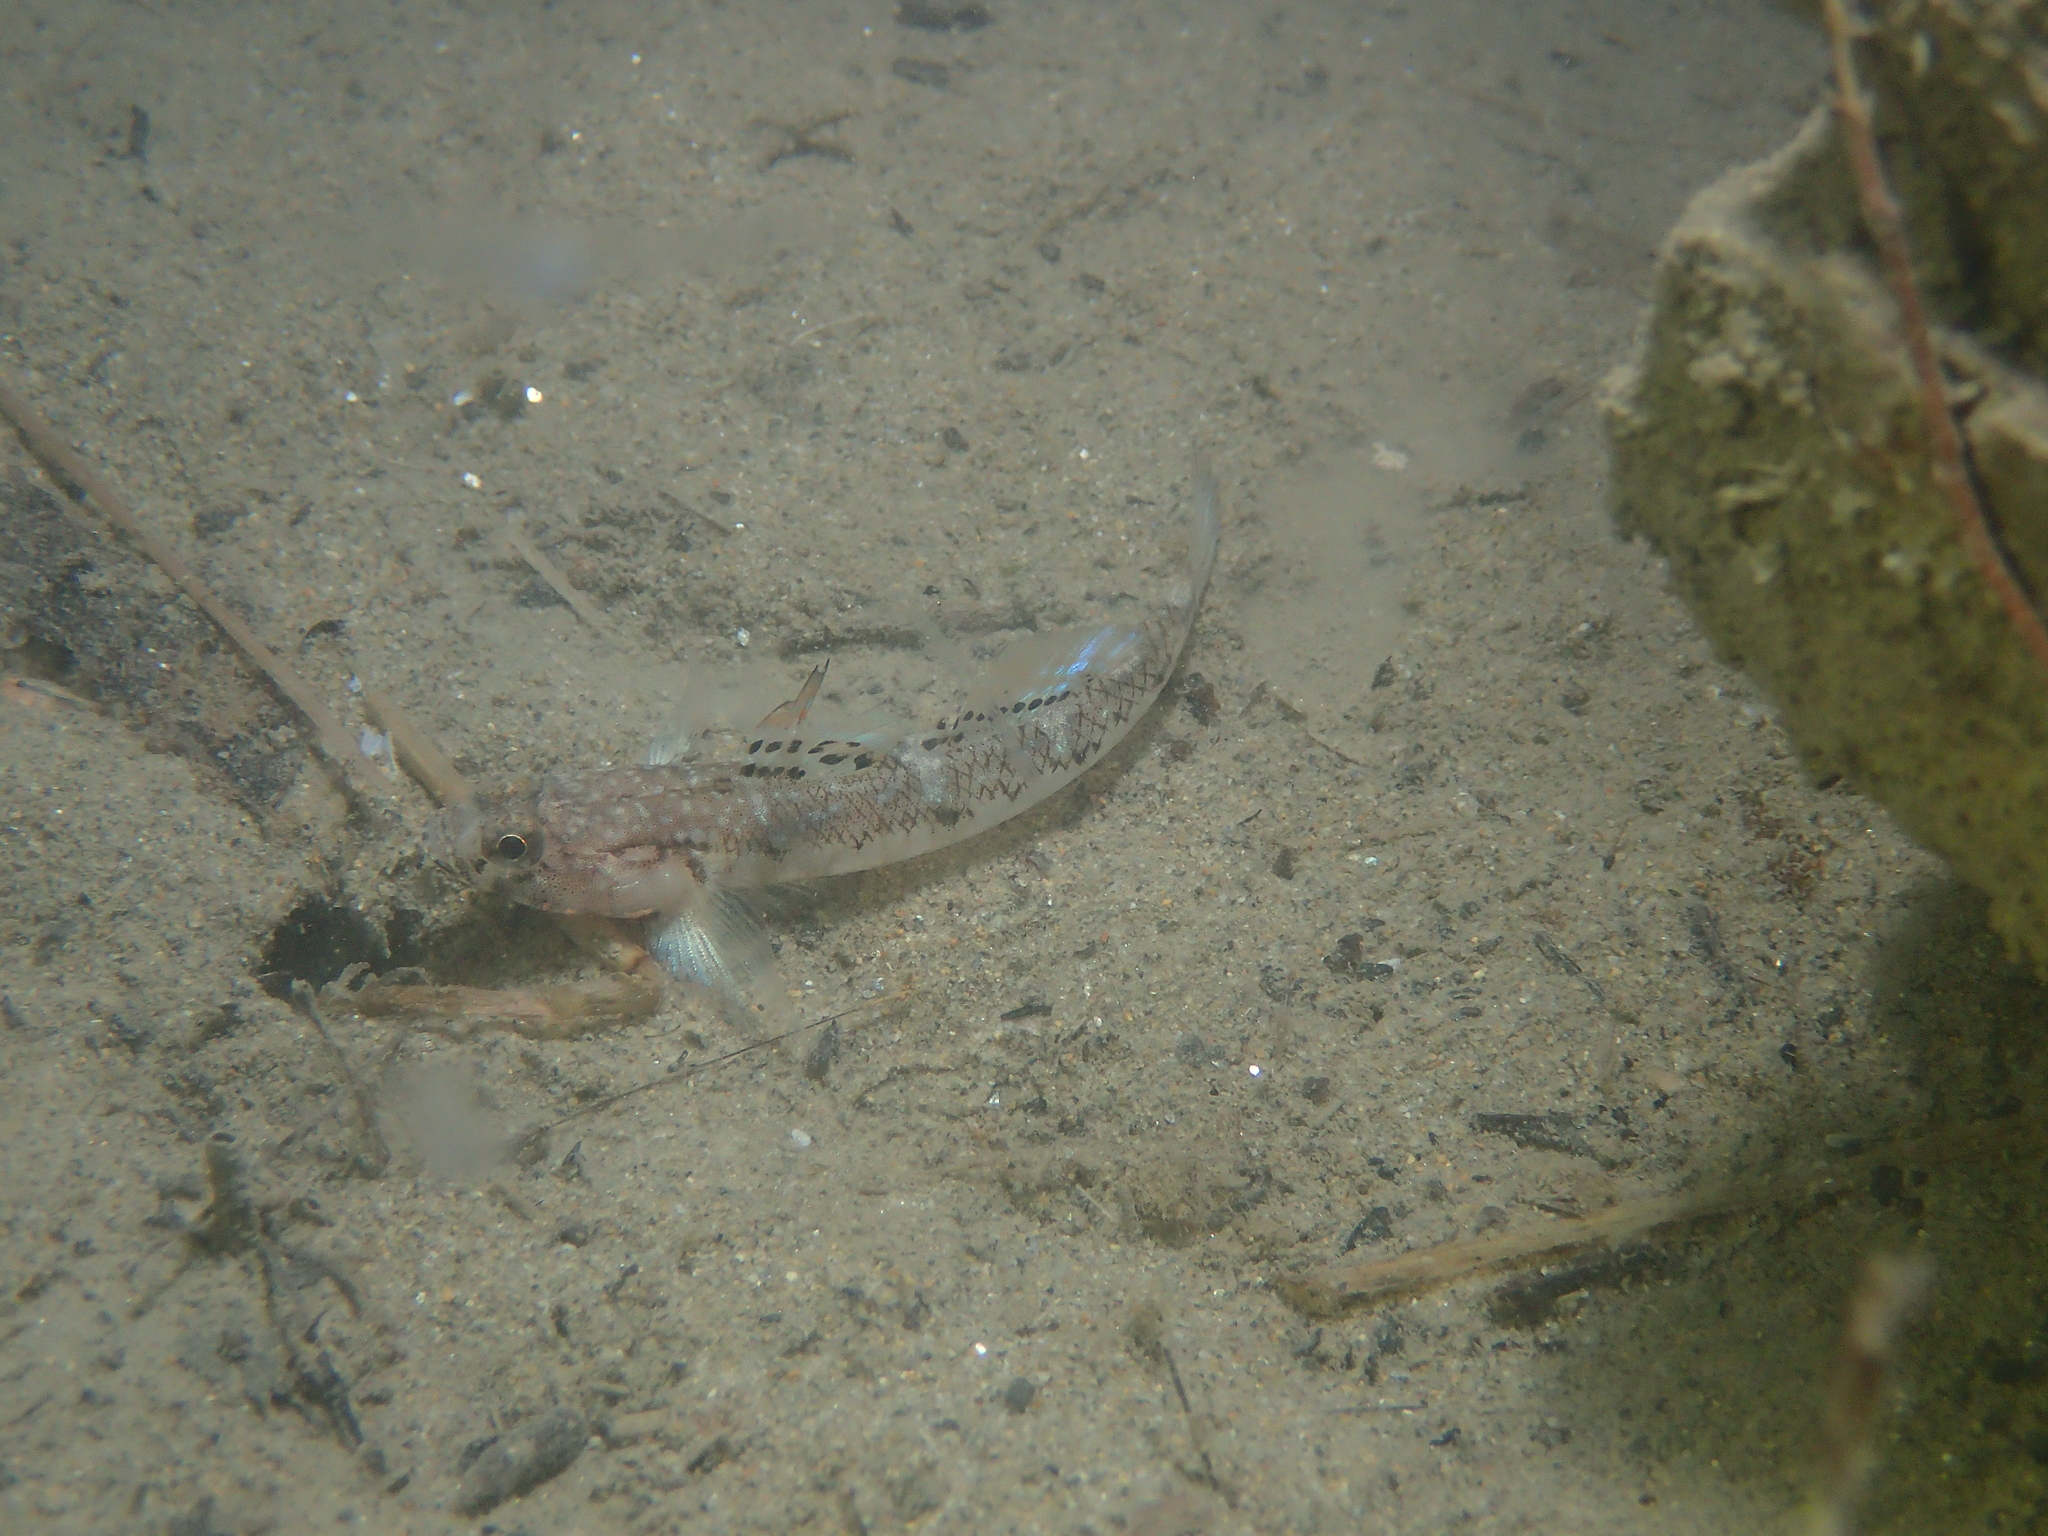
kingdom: Animalia
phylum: Chordata
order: Perciformes
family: Gobiidae
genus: Pomatoschistus
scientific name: Pomatoschistus pictus
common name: Painted goby
